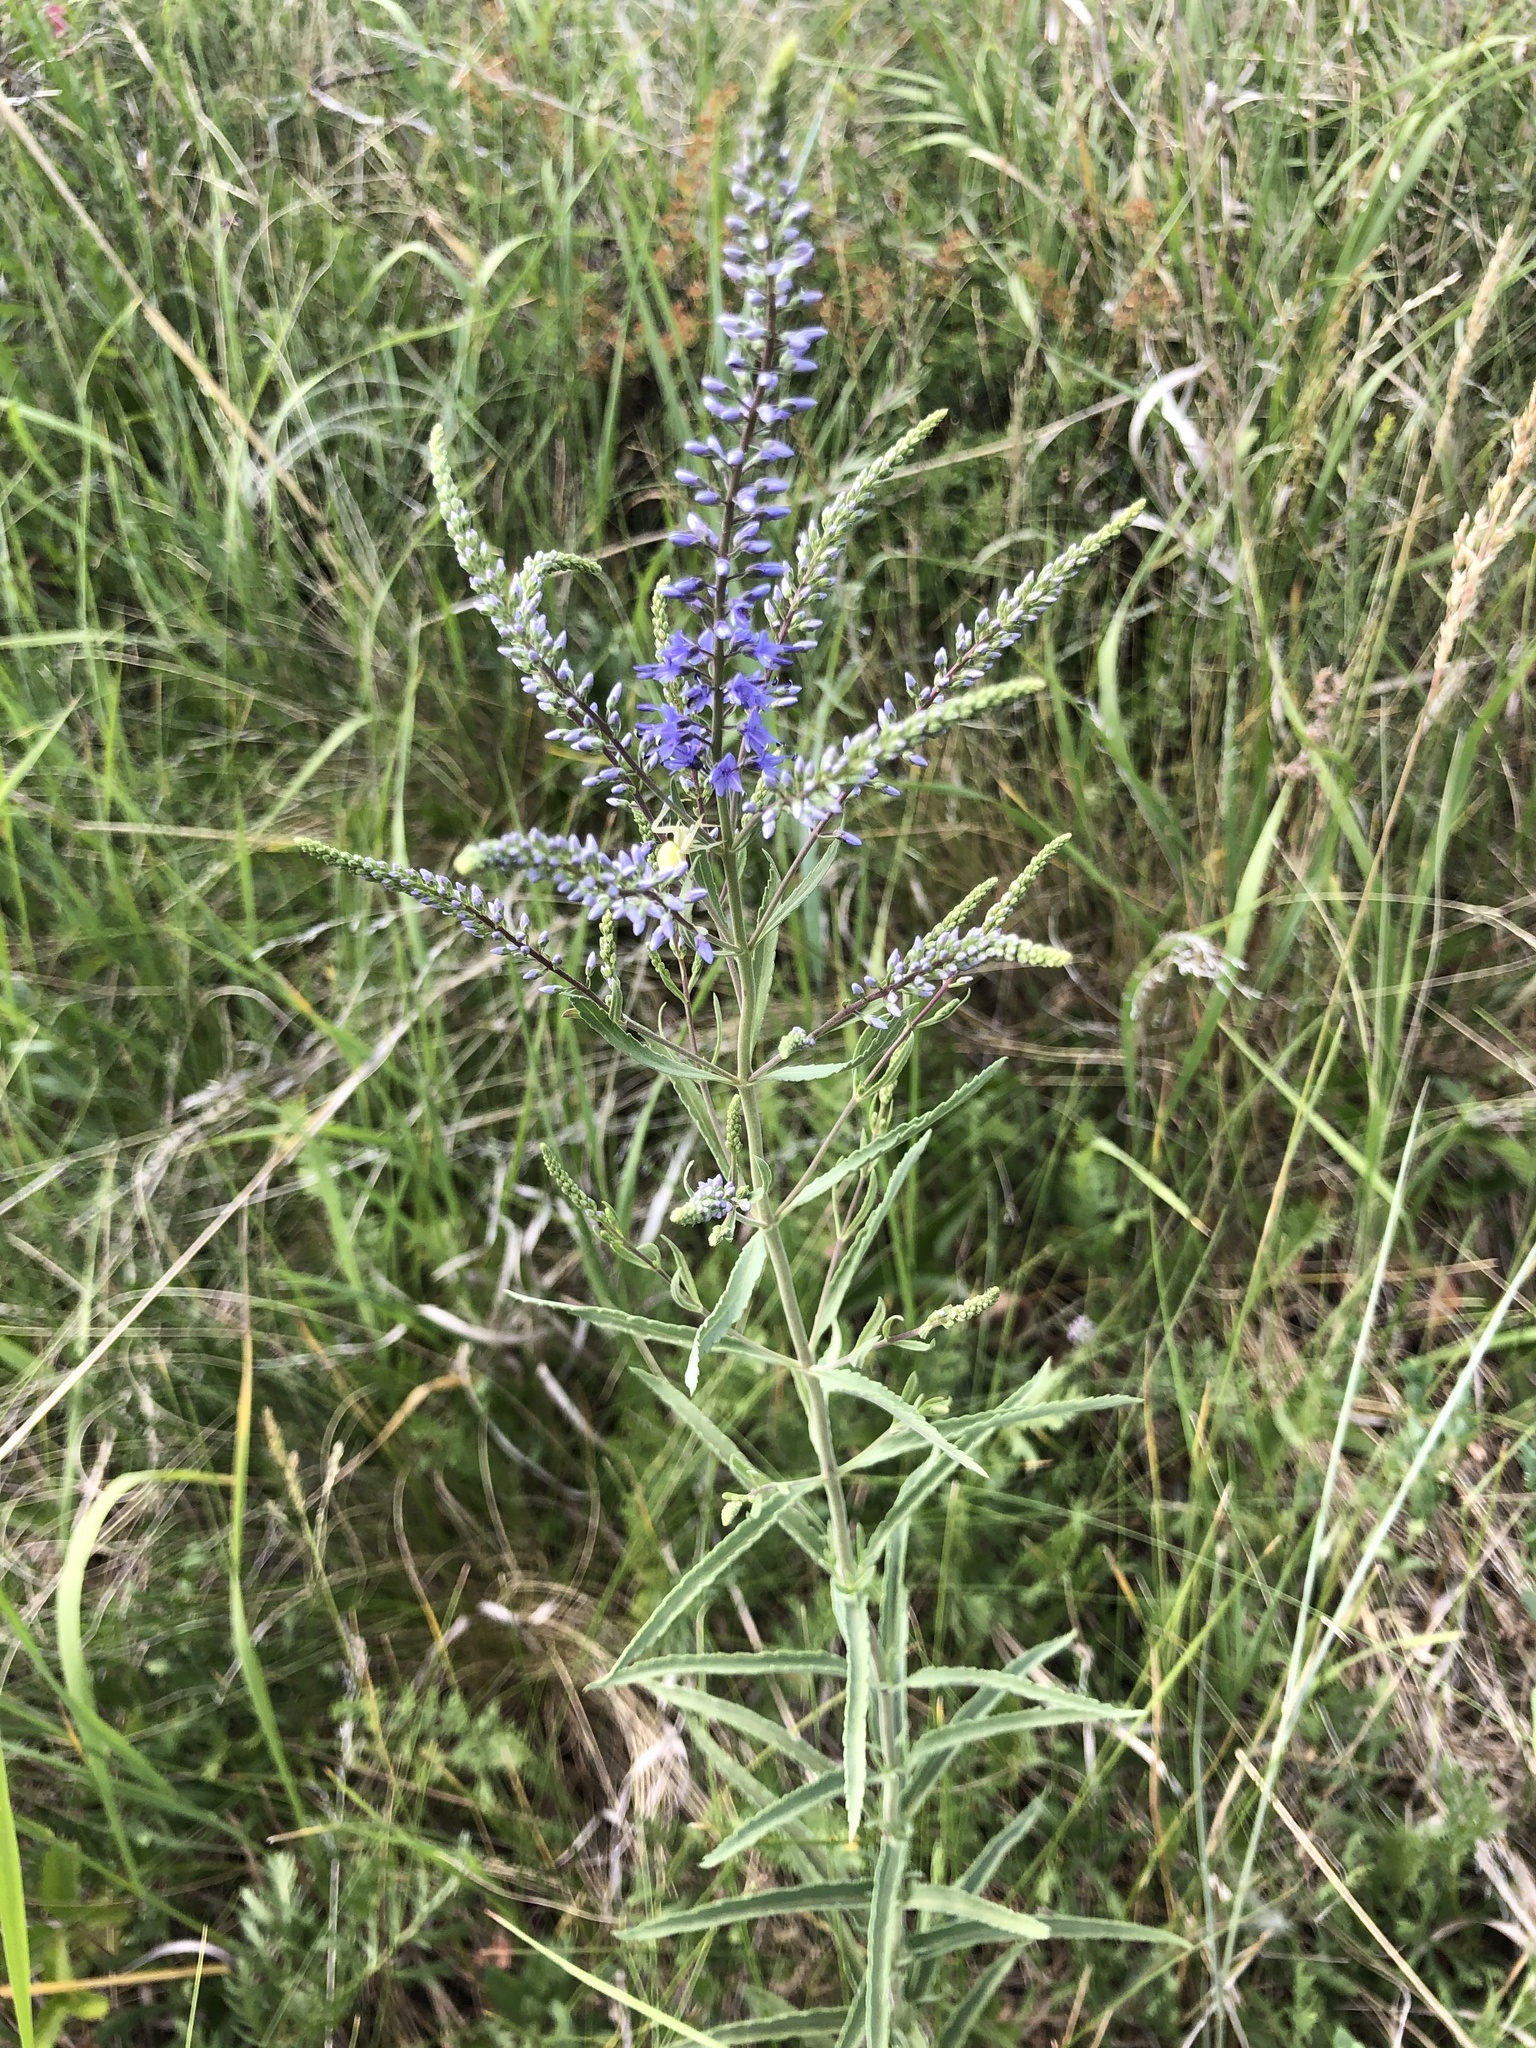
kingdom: Plantae
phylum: Tracheophyta
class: Magnoliopsida
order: Lamiales
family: Plantaginaceae
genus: Veronica
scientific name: Veronica spuria
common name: Bastard speedwell
